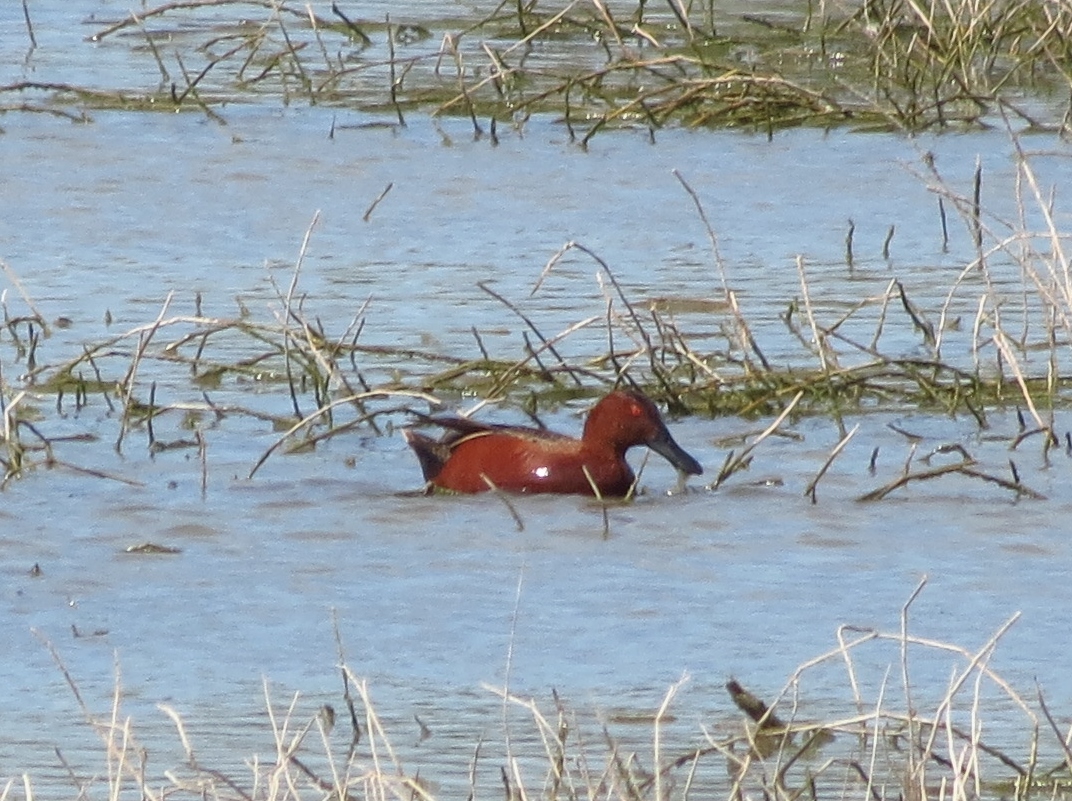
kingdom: Animalia
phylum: Chordata
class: Aves
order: Anseriformes
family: Anatidae
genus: Spatula
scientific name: Spatula cyanoptera
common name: Cinnamon teal
